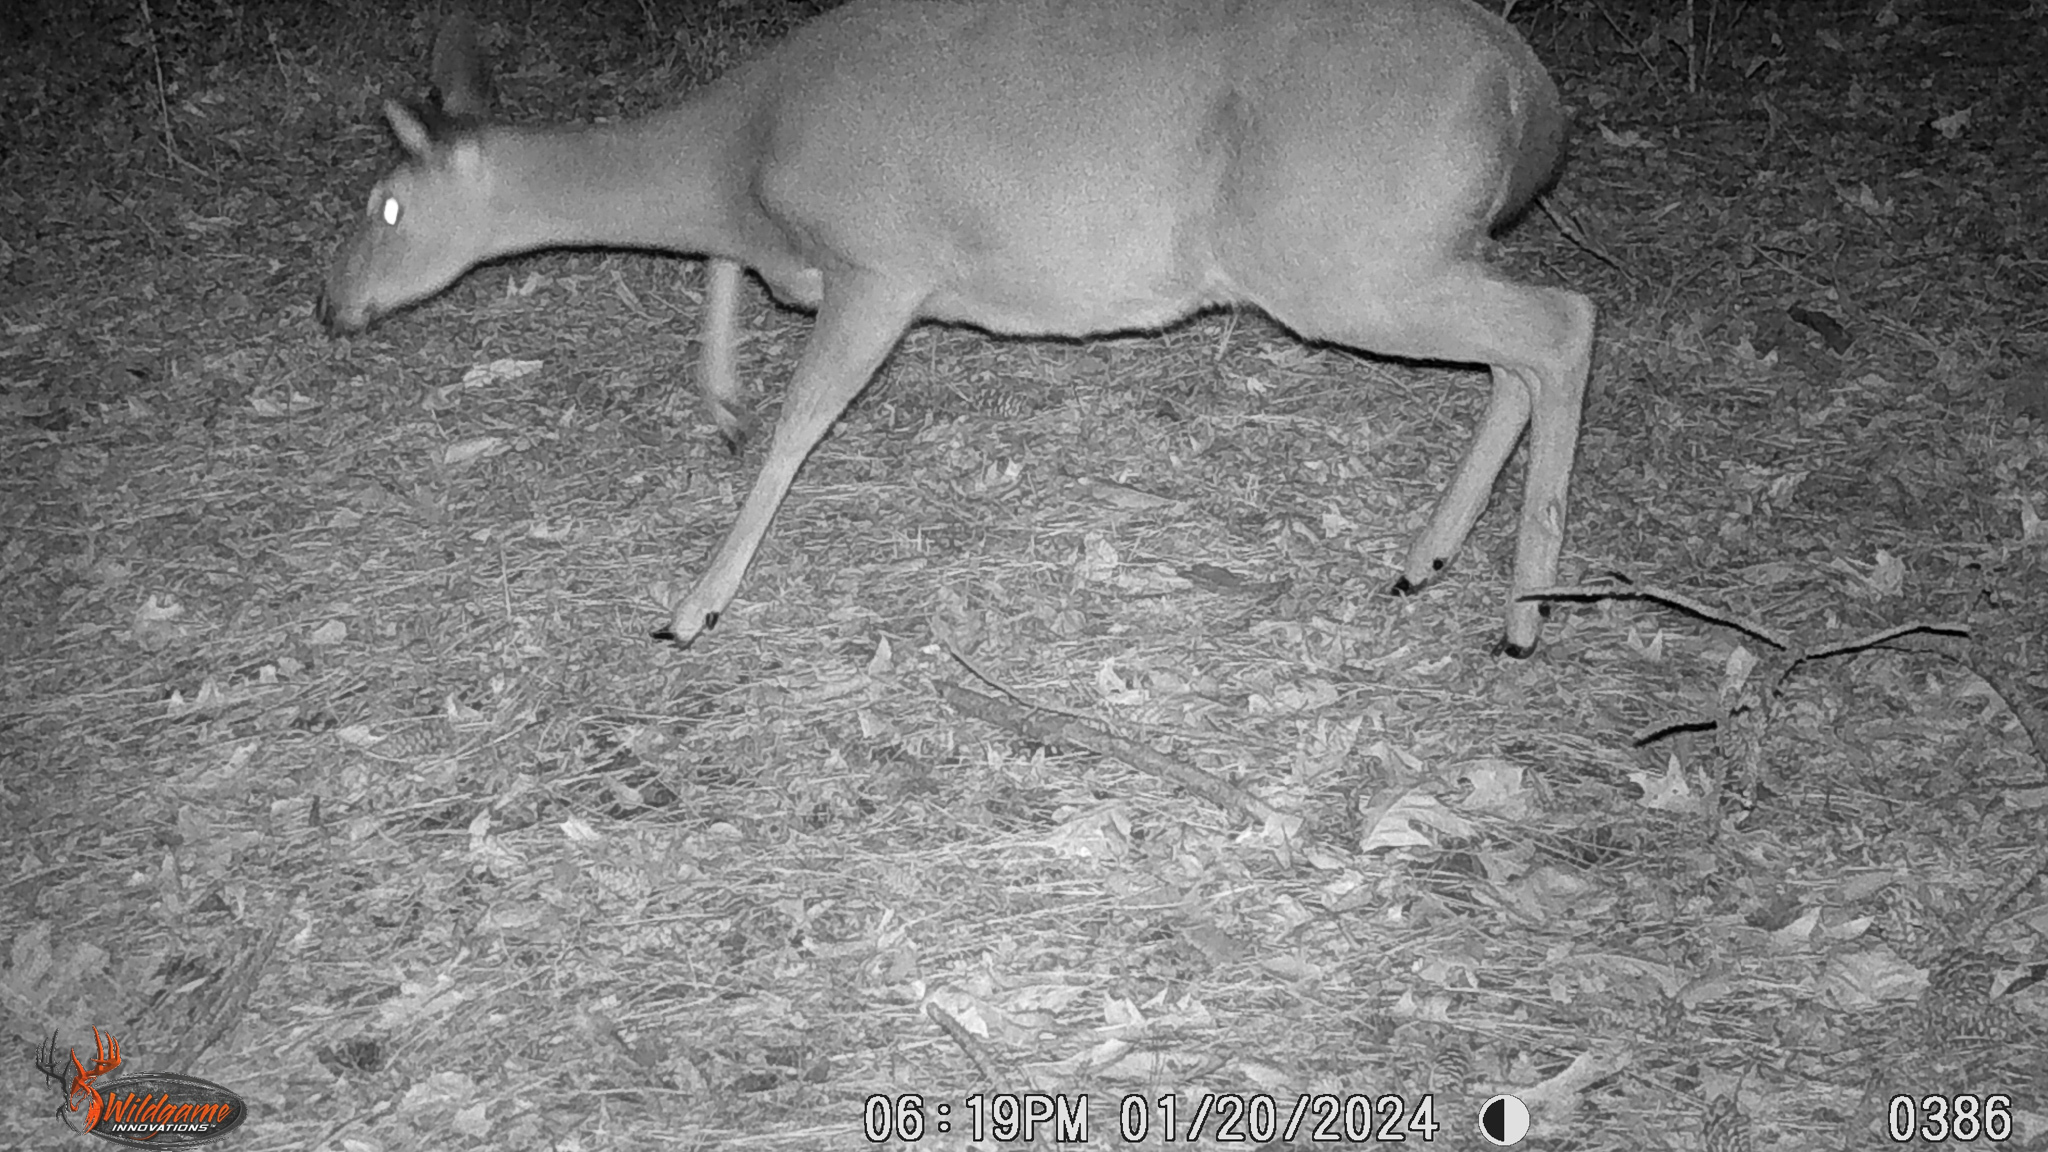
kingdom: Animalia
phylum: Chordata
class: Mammalia
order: Artiodactyla
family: Cervidae
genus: Odocoileus
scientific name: Odocoileus virginianus
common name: White-tailed deer
